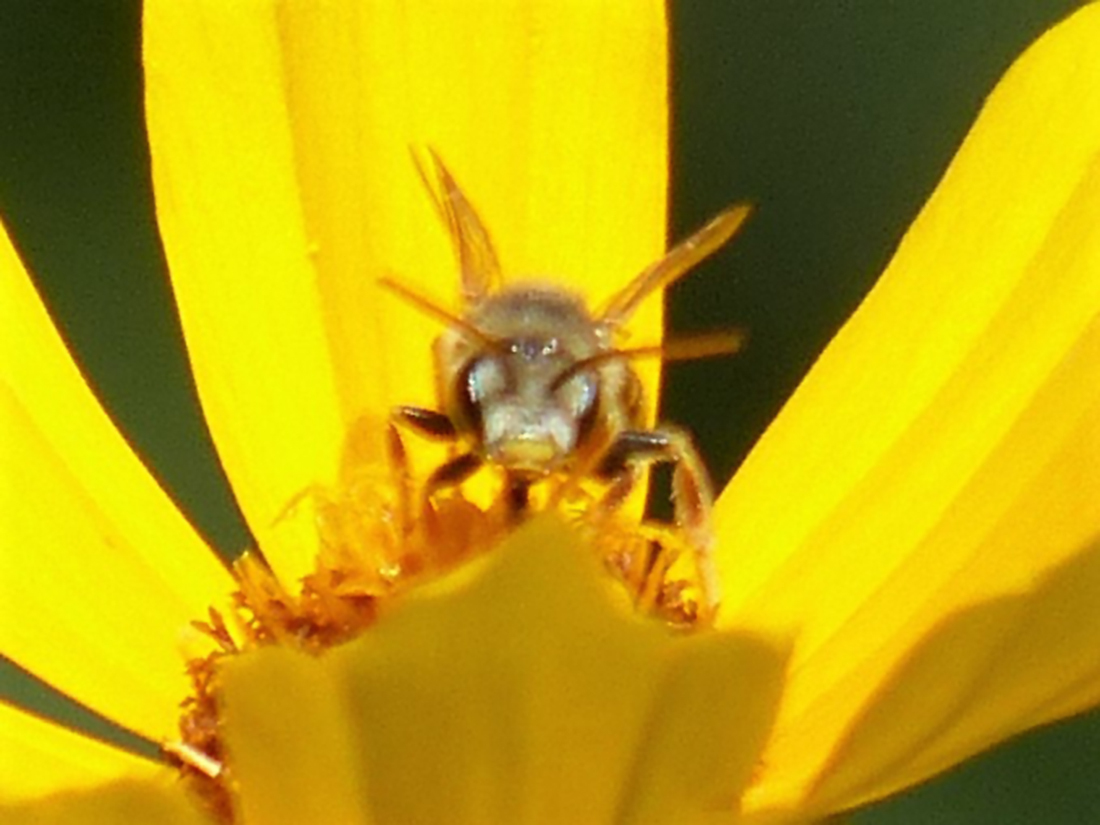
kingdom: Animalia
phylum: Arthropoda
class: Insecta
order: Hymenoptera
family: Halictidae
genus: Halictus
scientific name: Halictus ligatus
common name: Ligated furrow bee
